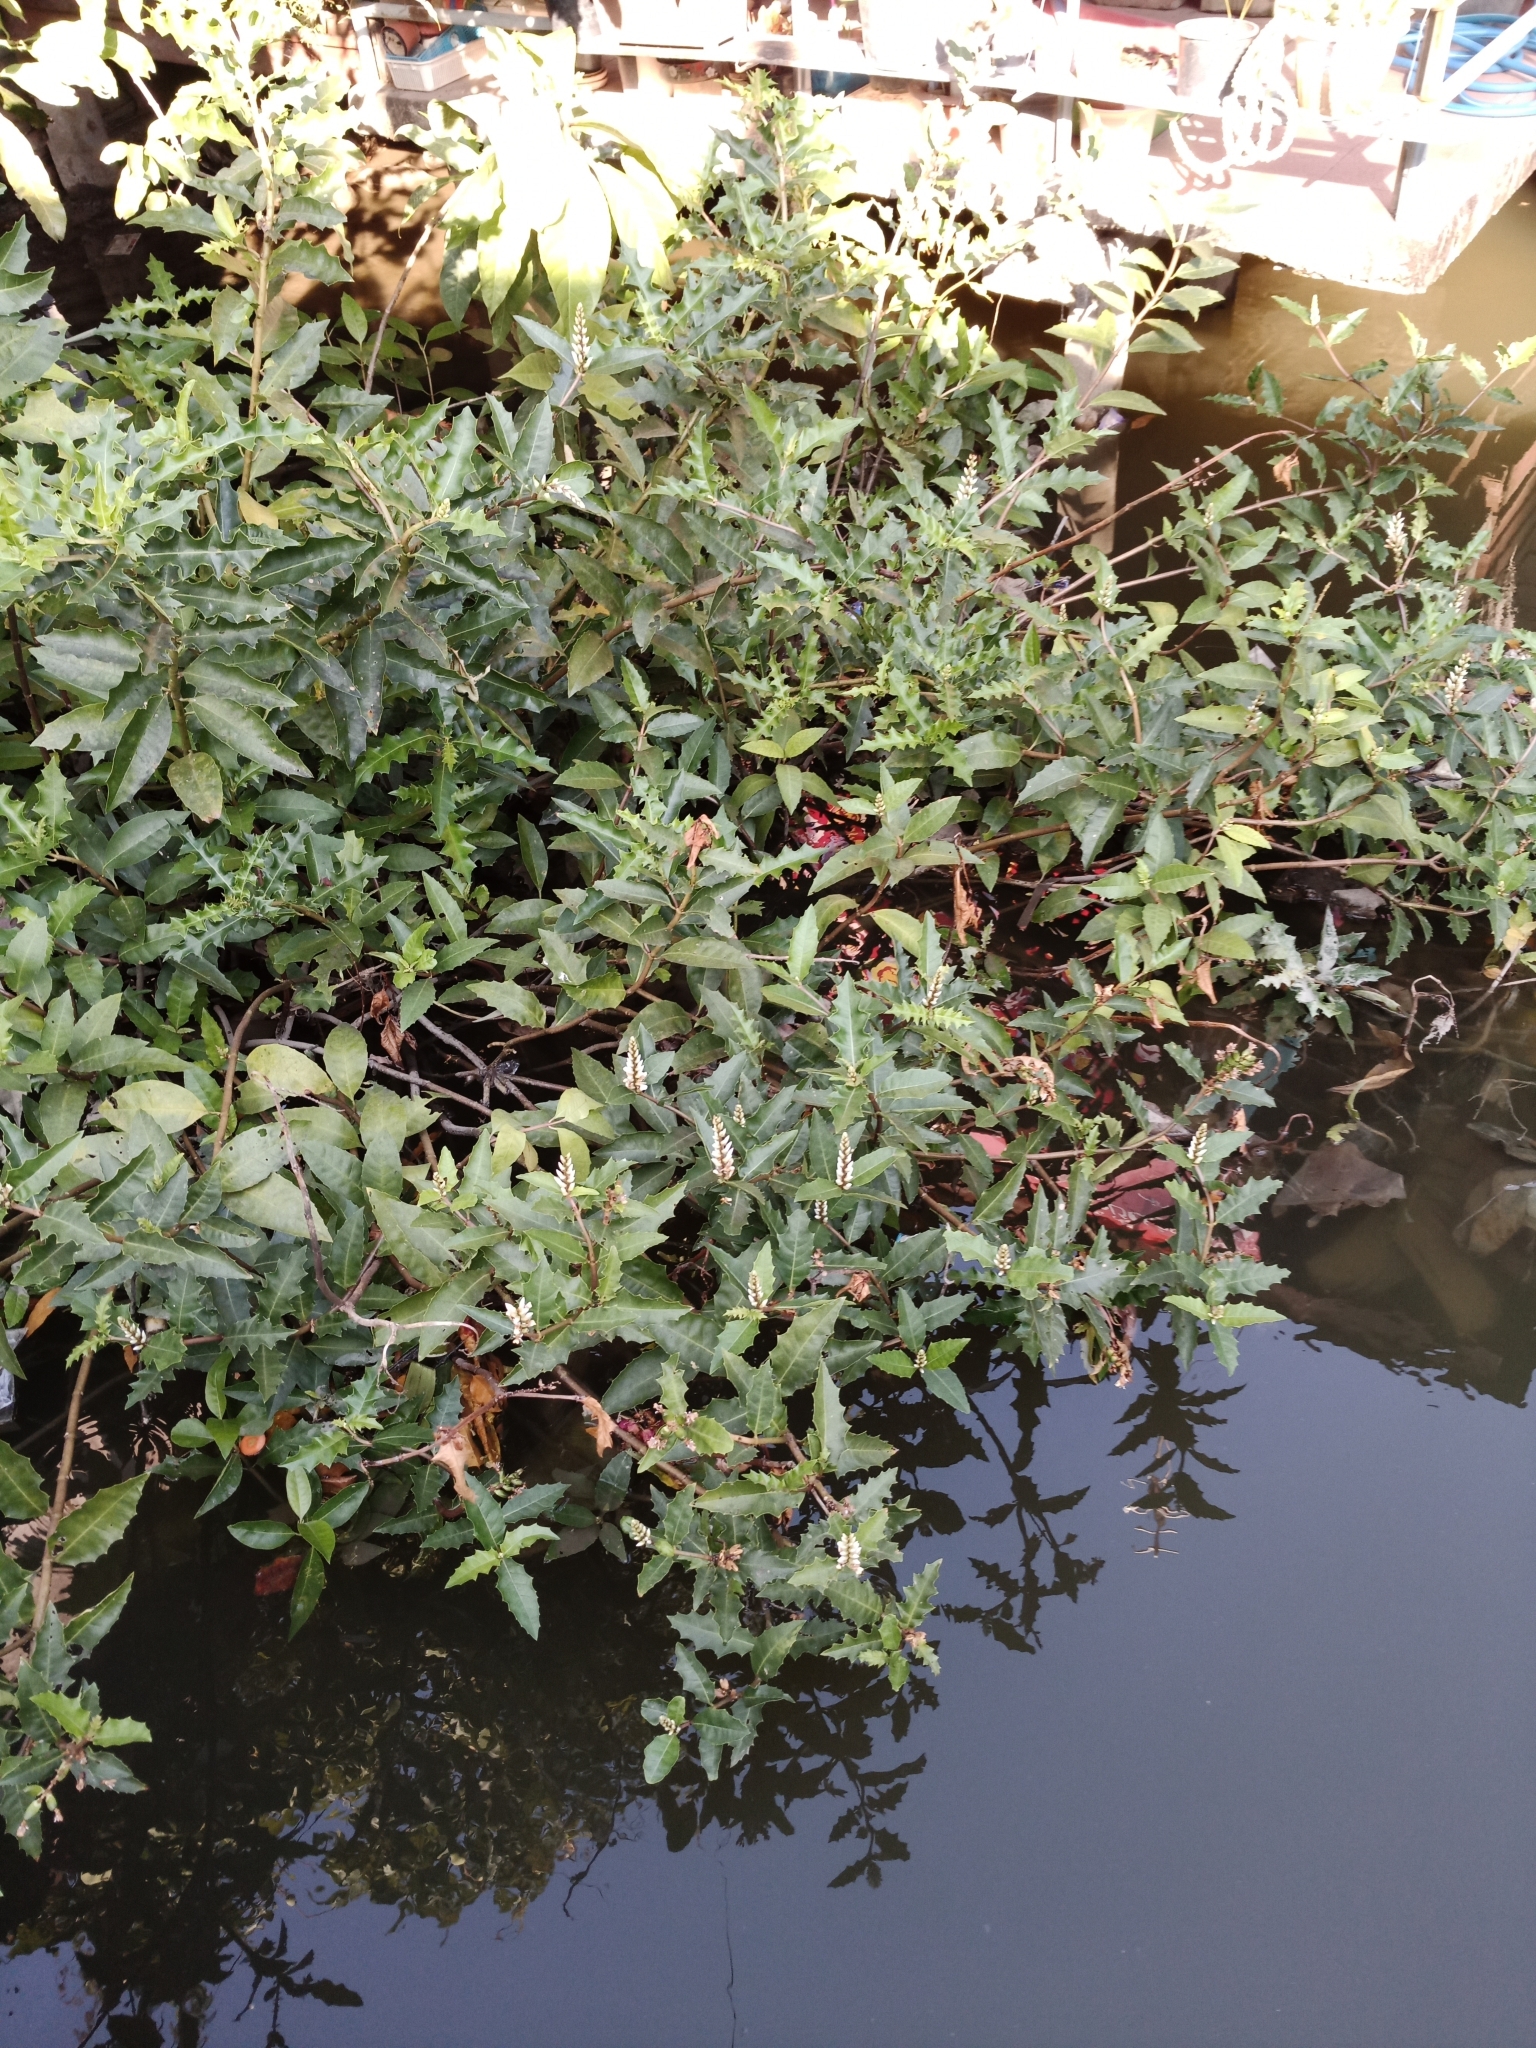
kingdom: Plantae
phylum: Tracheophyta
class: Magnoliopsida
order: Lamiales
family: Acanthaceae
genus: Acanthus
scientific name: Acanthus ilicifolius
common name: Holy mangrove
